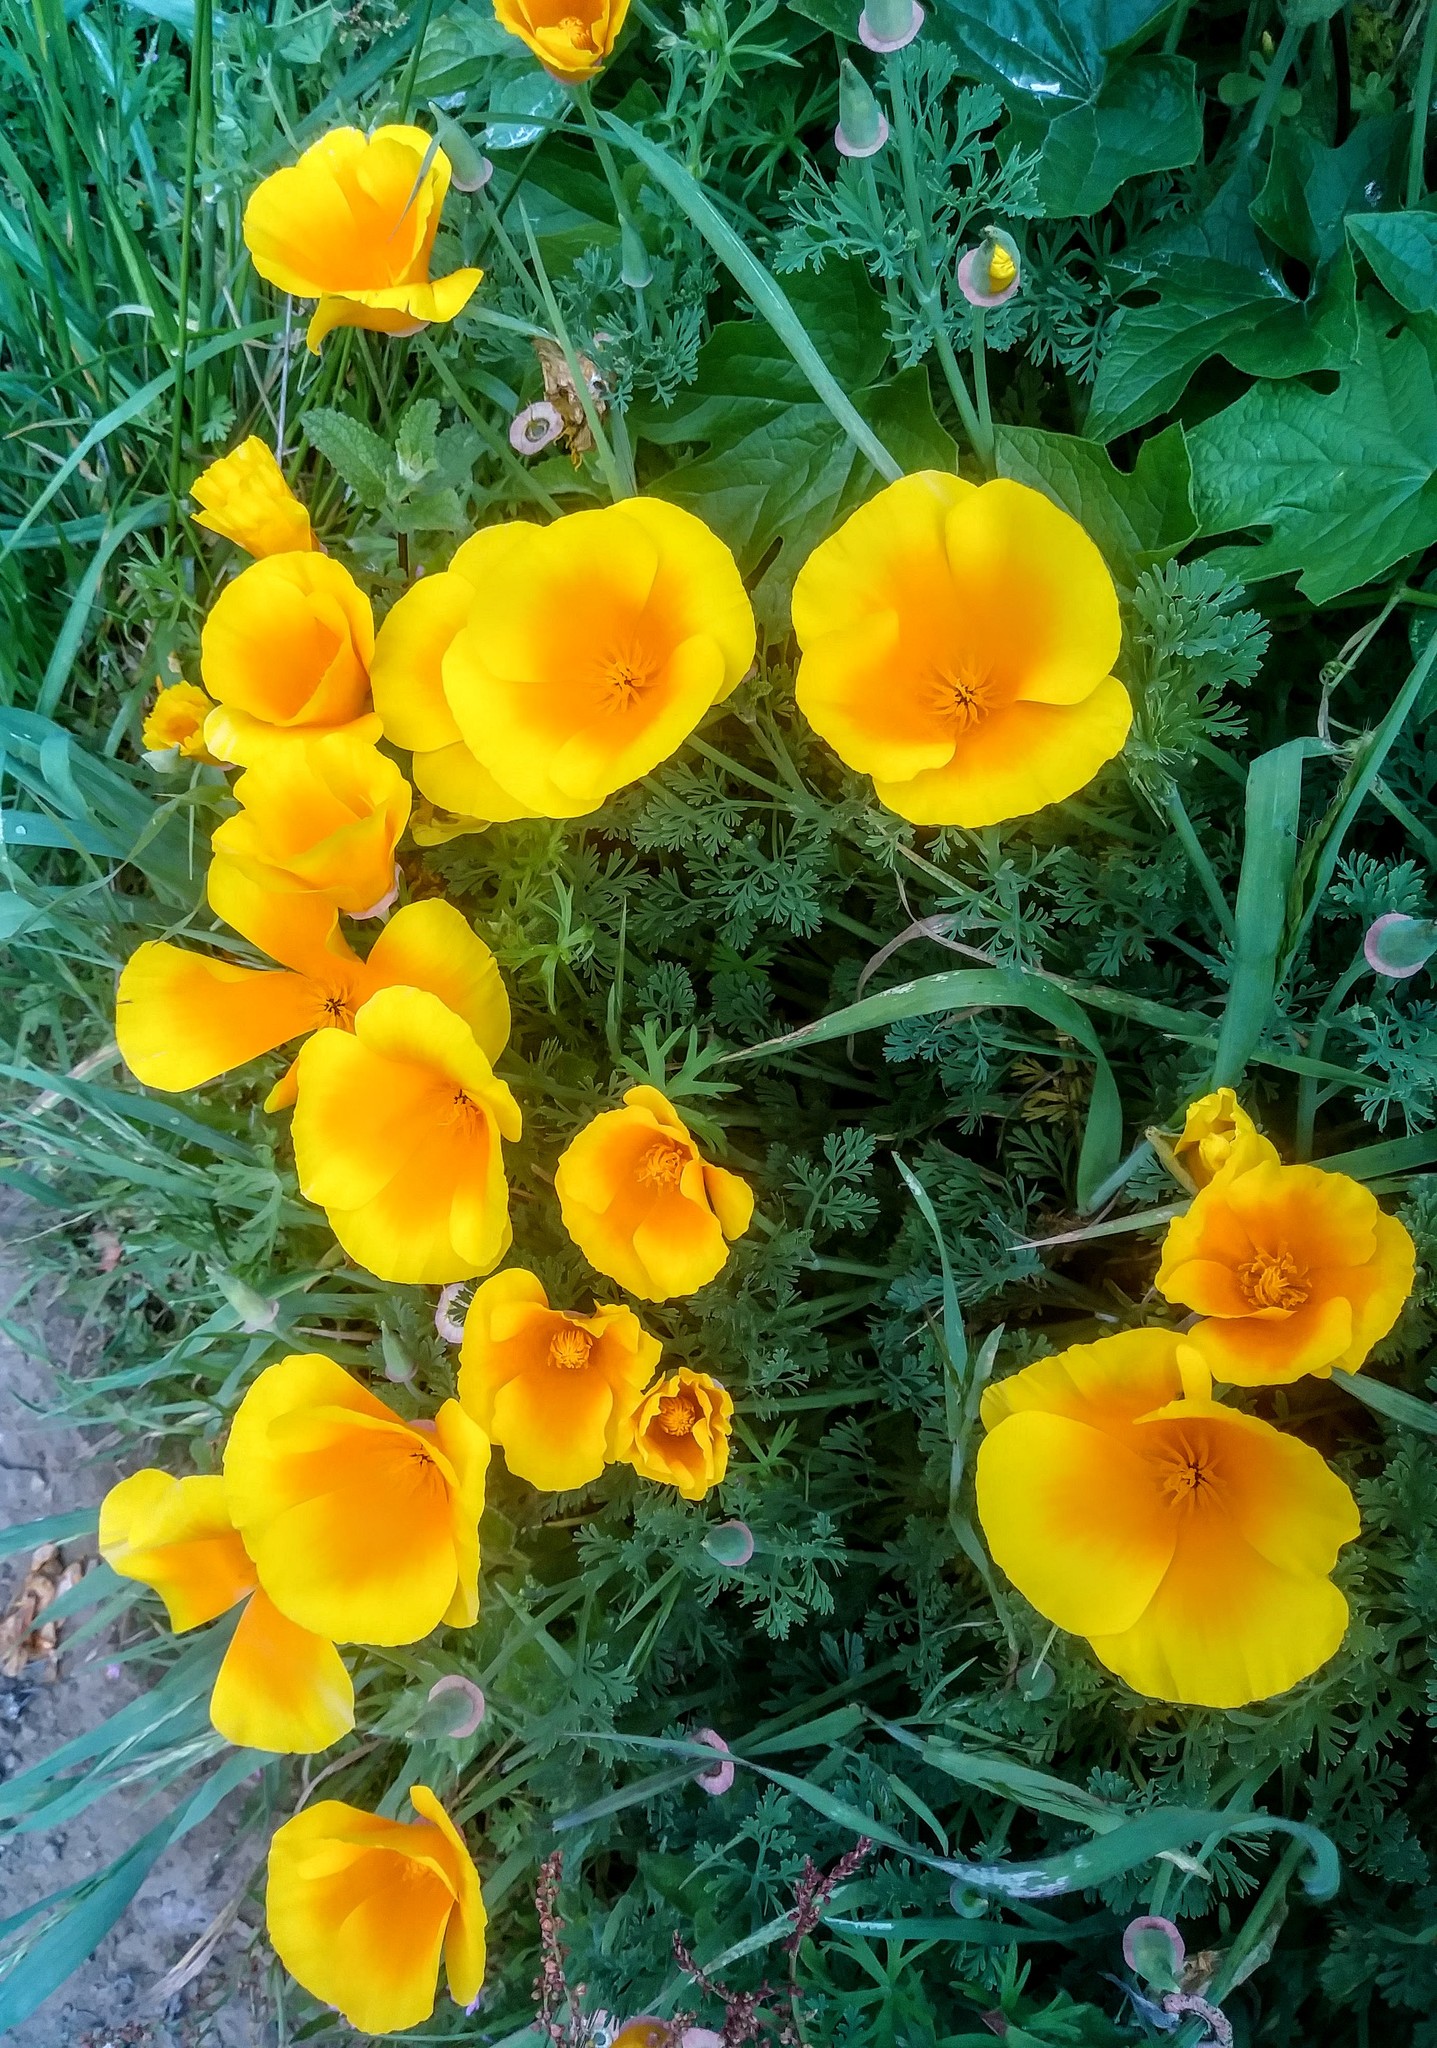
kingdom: Plantae
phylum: Tracheophyta
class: Magnoliopsida
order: Ranunculales
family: Papaveraceae
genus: Eschscholzia
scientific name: Eschscholzia californica
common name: California poppy
